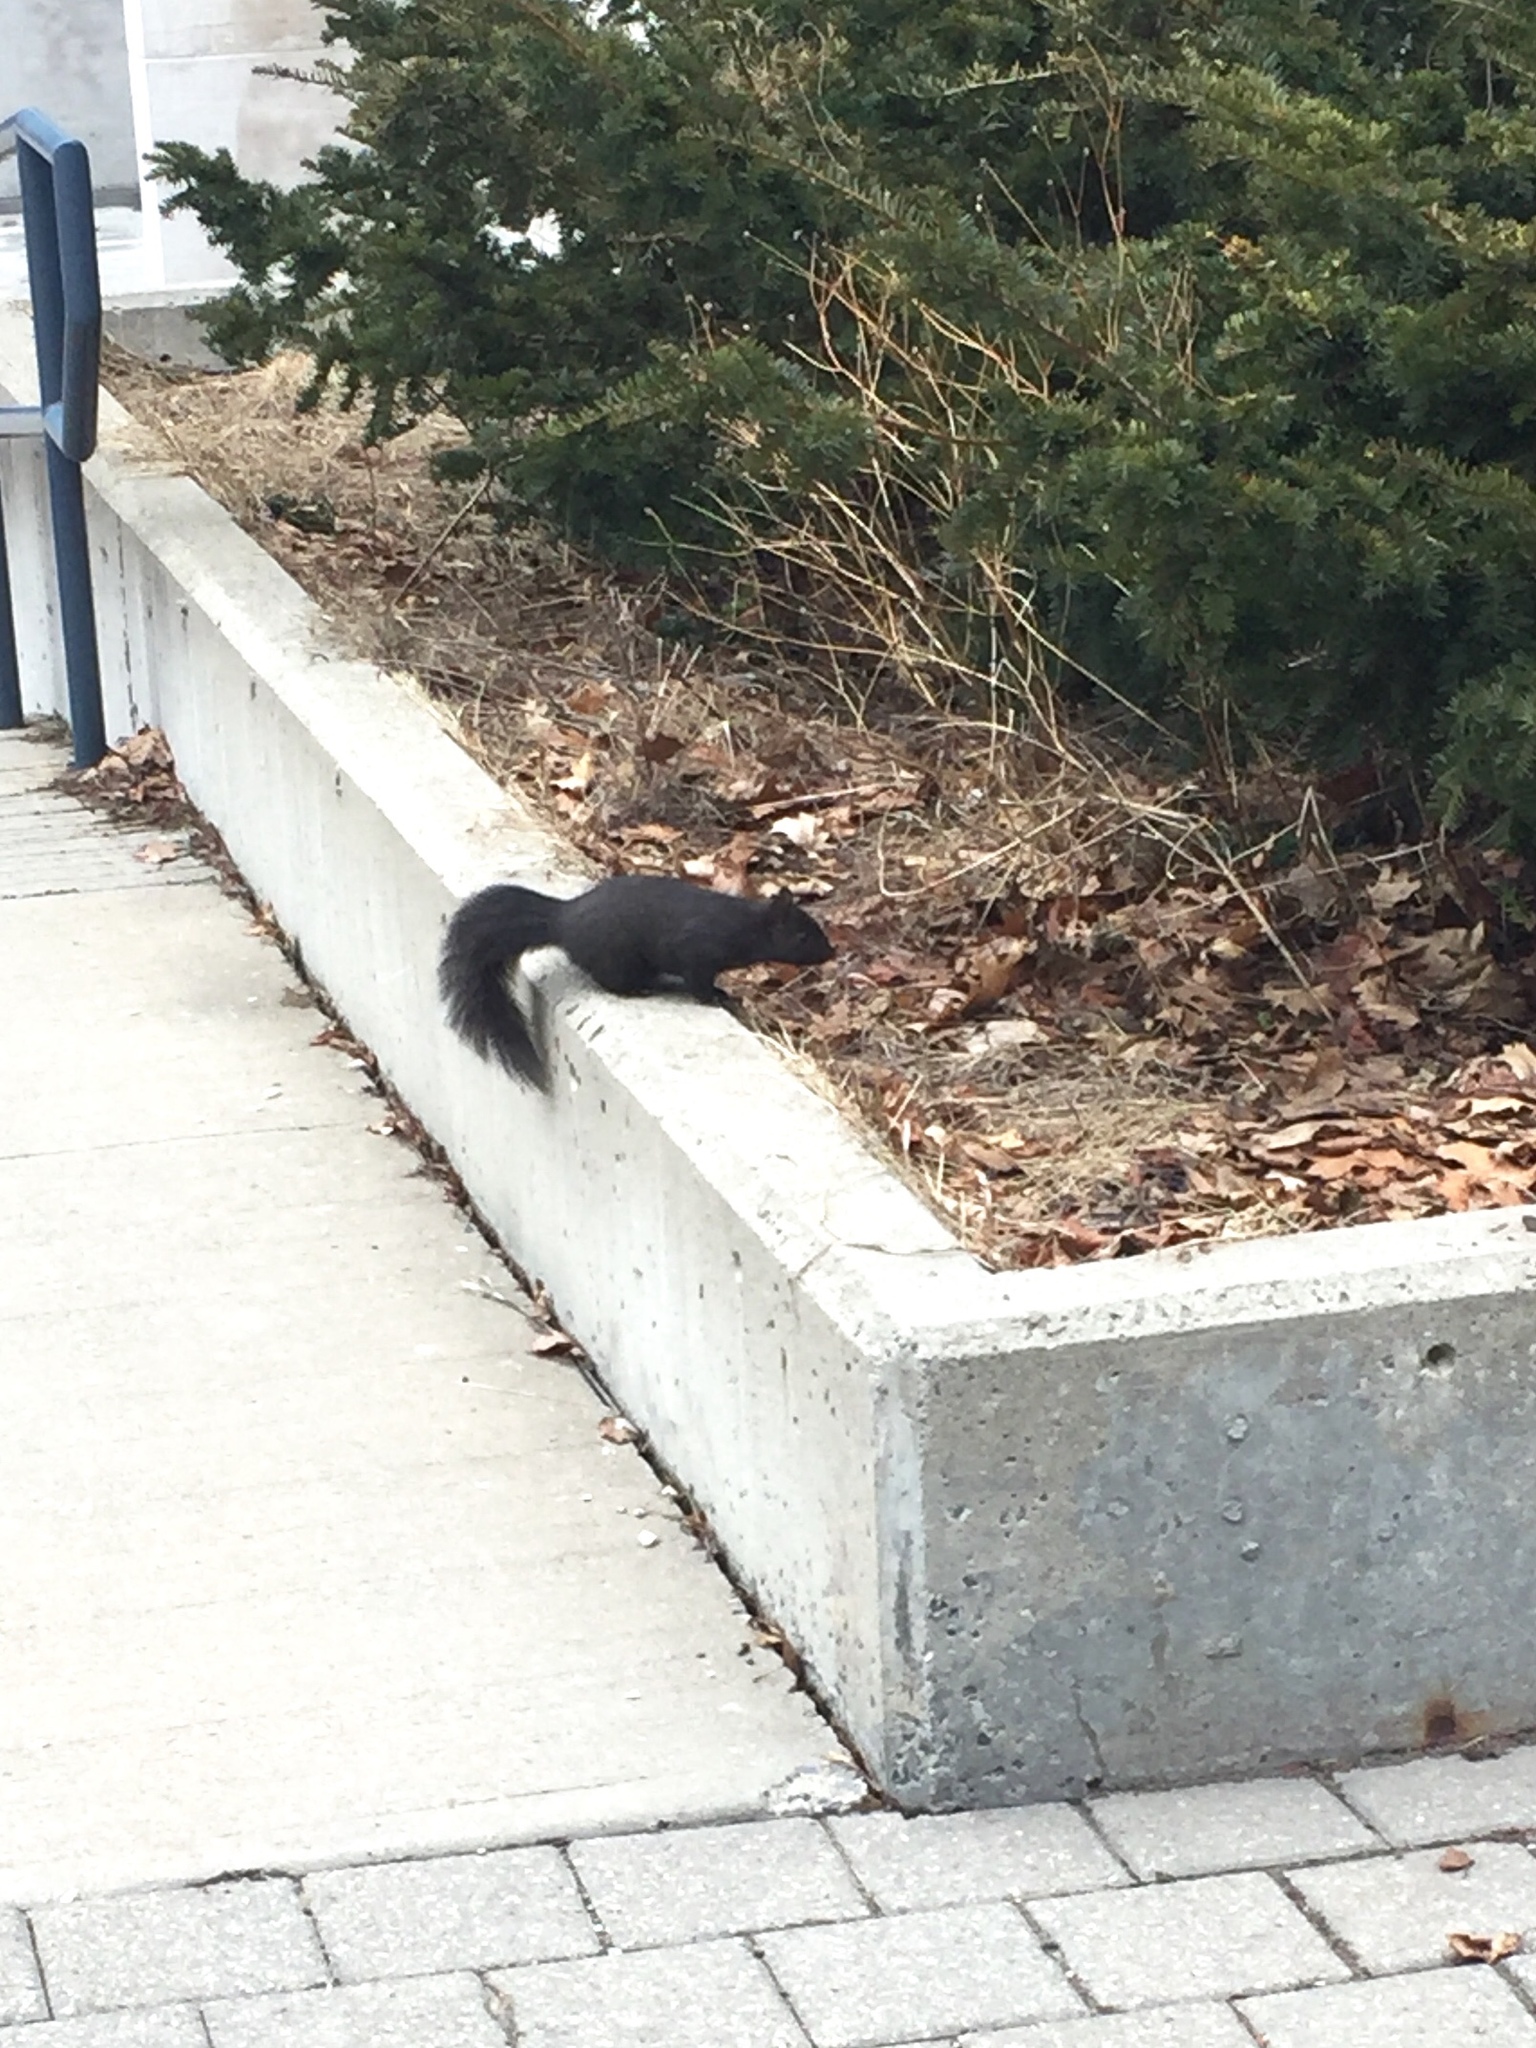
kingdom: Animalia
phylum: Chordata
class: Mammalia
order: Rodentia
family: Sciuridae
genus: Sciurus
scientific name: Sciurus carolinensis
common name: Eastern gray squirrel
